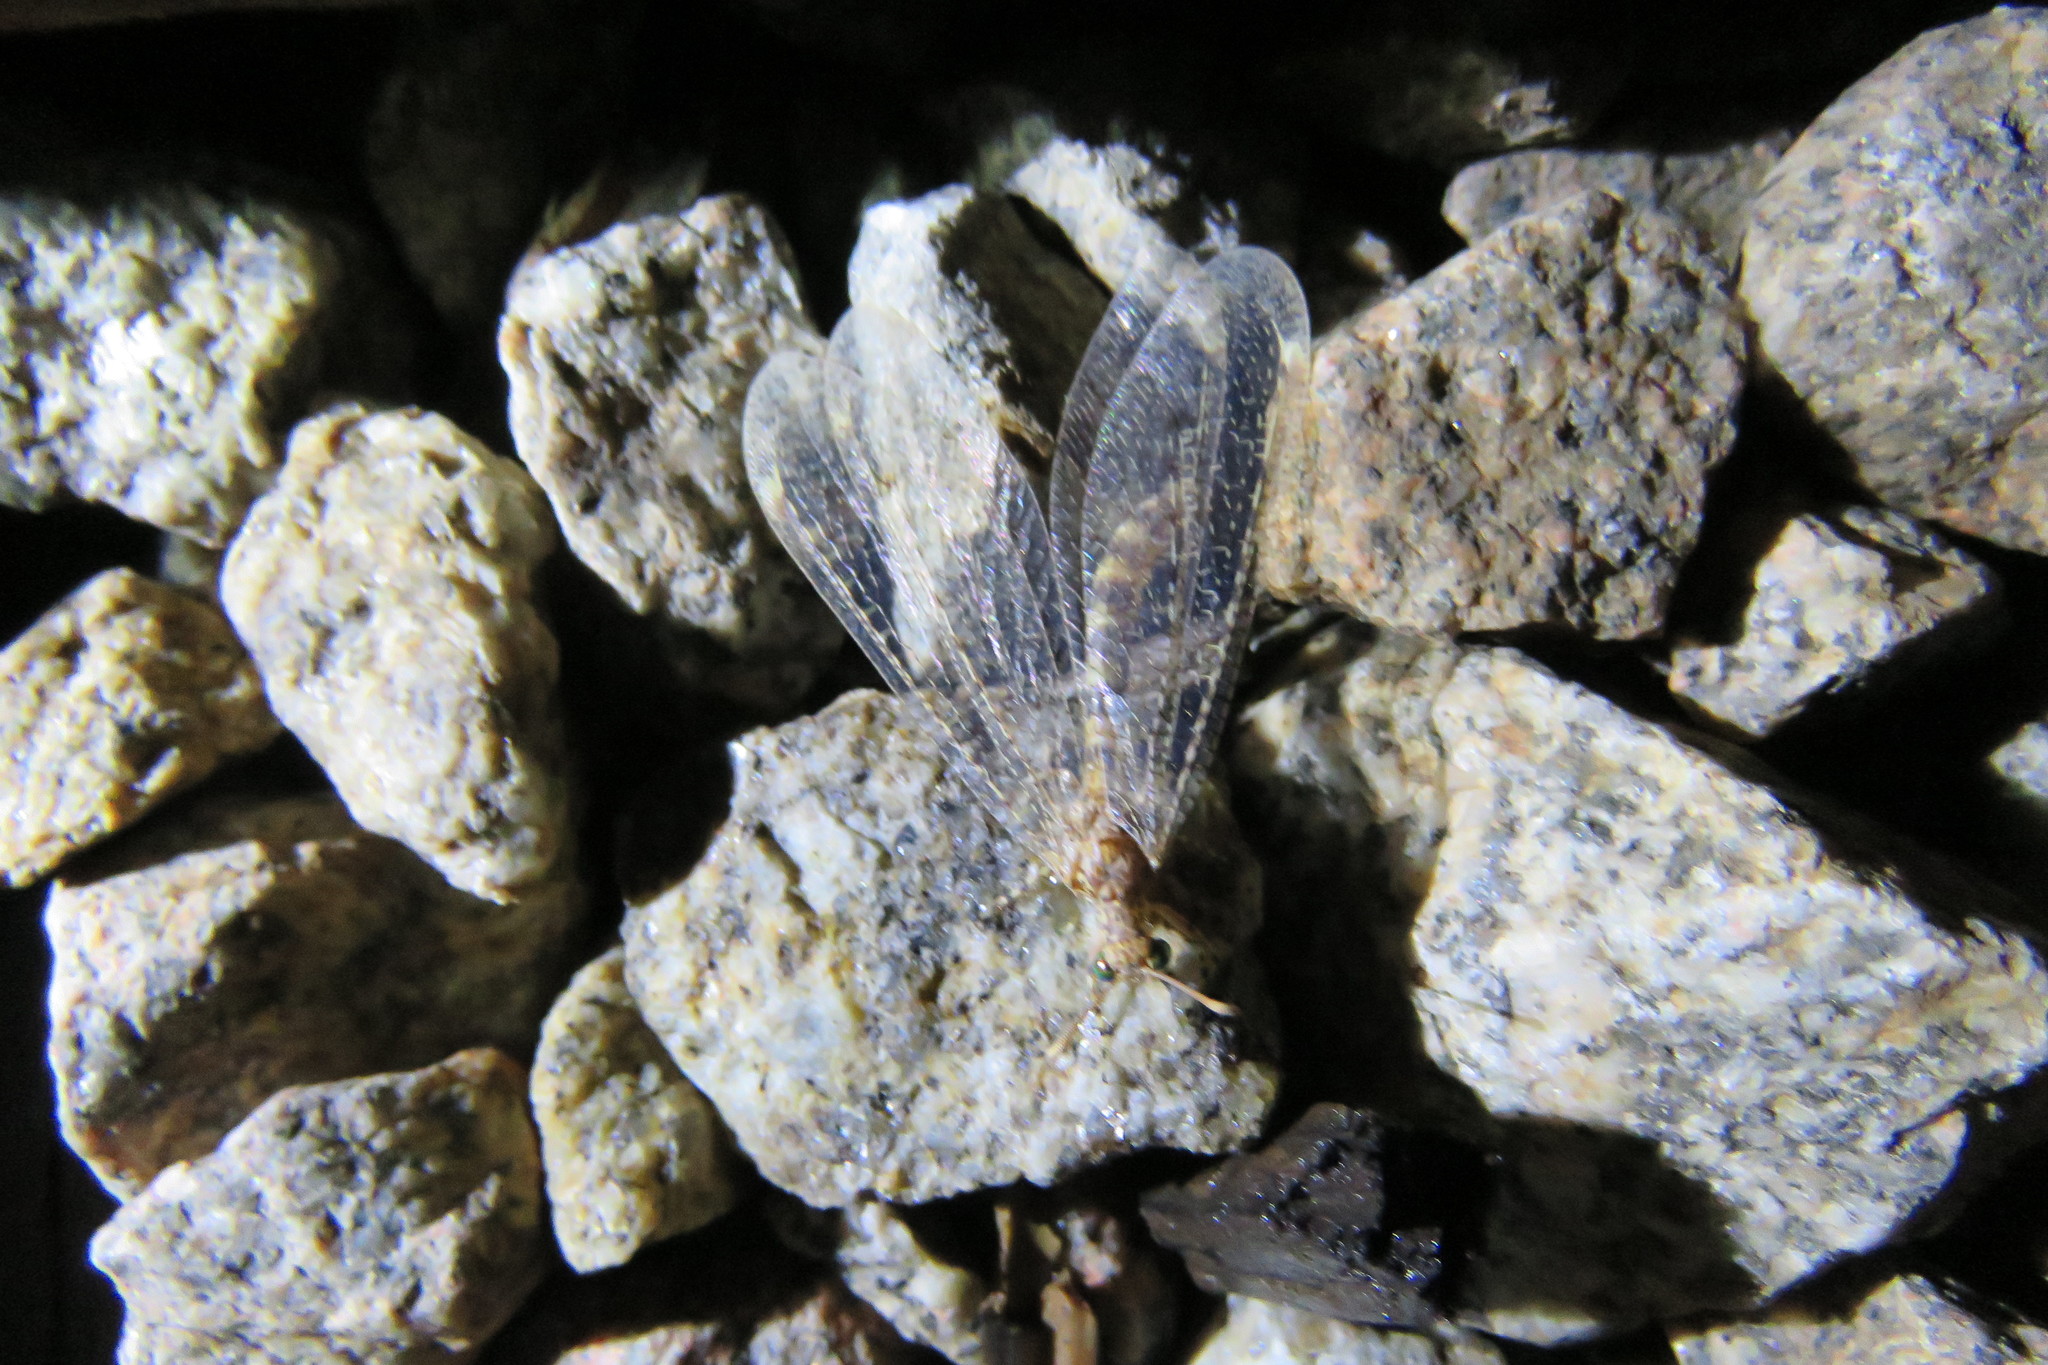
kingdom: Animalia
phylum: Arthropoda
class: Insecta
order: Neuroptera
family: Myrmeleontidae
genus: Solter
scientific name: Solter liber
